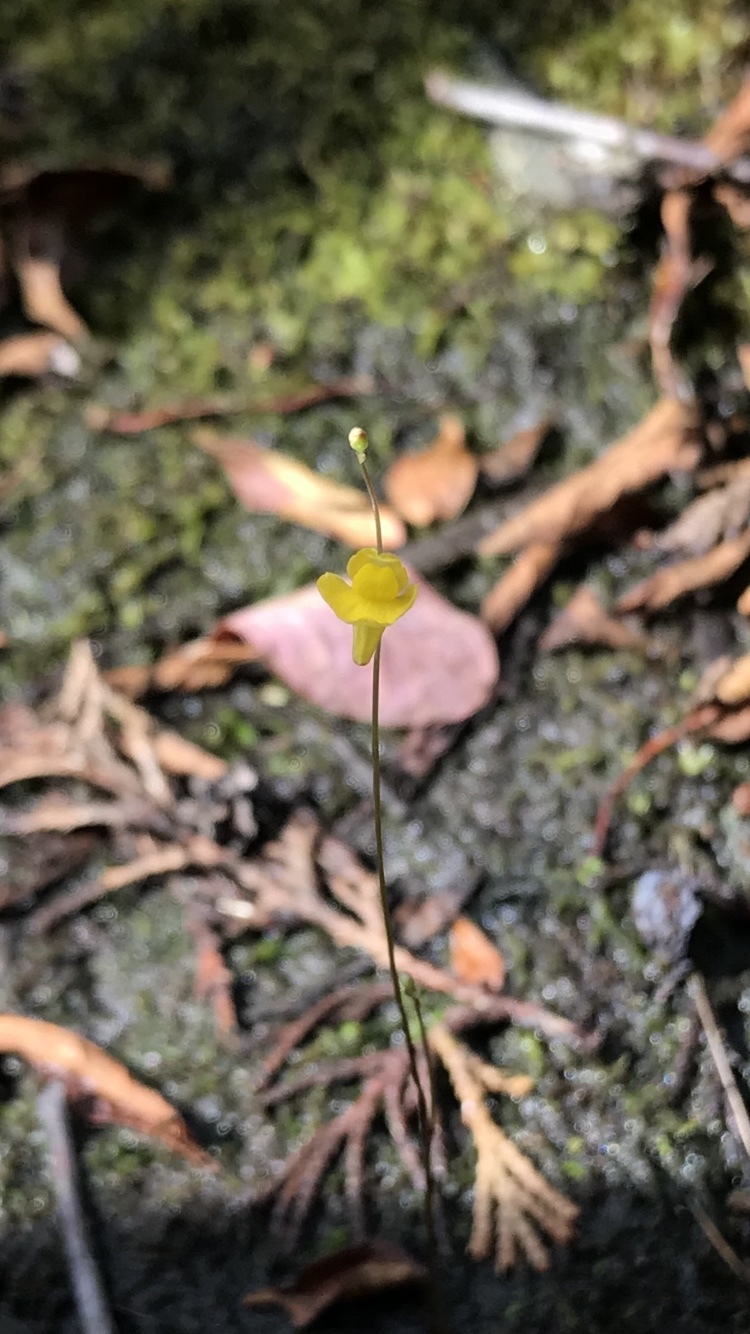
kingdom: Plantae
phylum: Tracheophyta
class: Magnoliopsida
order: Lamiales
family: Lentibulariaceae
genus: Utricularia
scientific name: Utricularia subulata
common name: Tiny bladderwort
